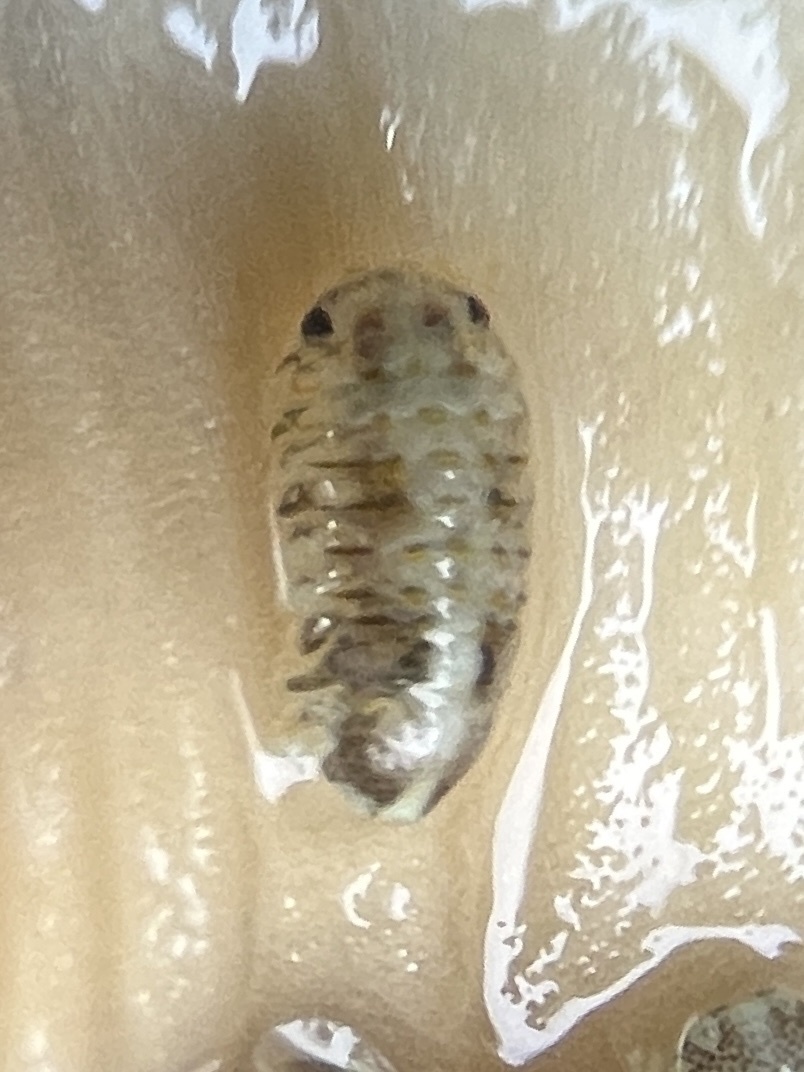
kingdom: Animalia
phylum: Arthropoda
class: Malacostraca
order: Isopoda
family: Sphaeromatidae
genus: Dynamenella
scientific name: Dynamenella perforata
